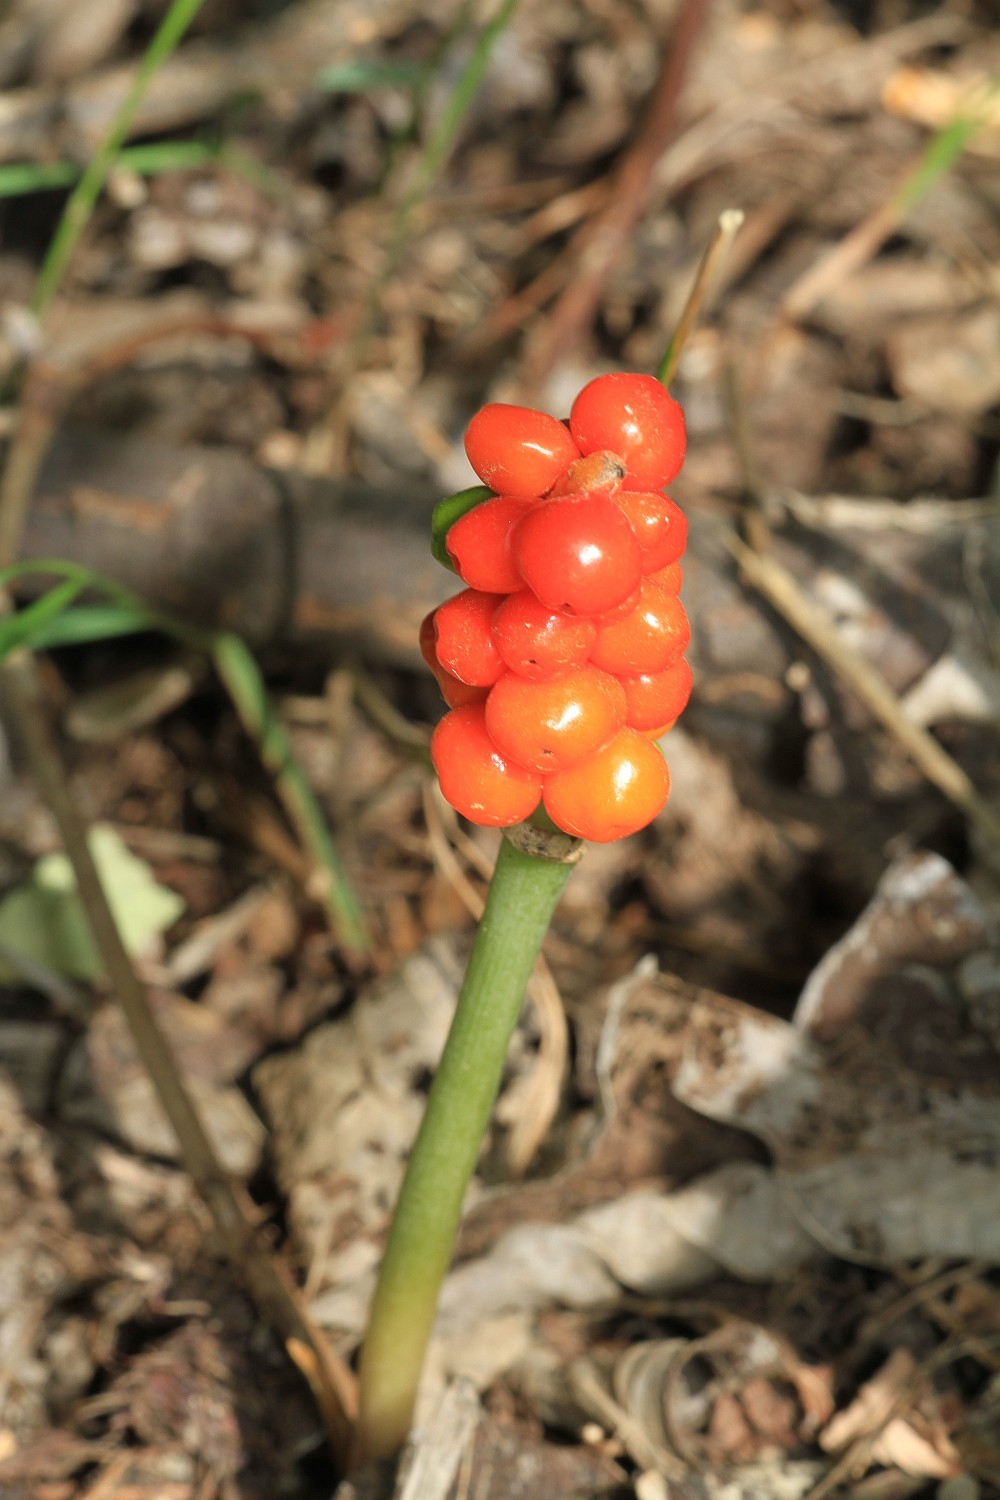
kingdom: Plantae
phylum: Tracheophyta
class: Liliopsida
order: Alismatales
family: Araceae
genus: Arum
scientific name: Arum maculatum
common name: Lords-and-ladies
